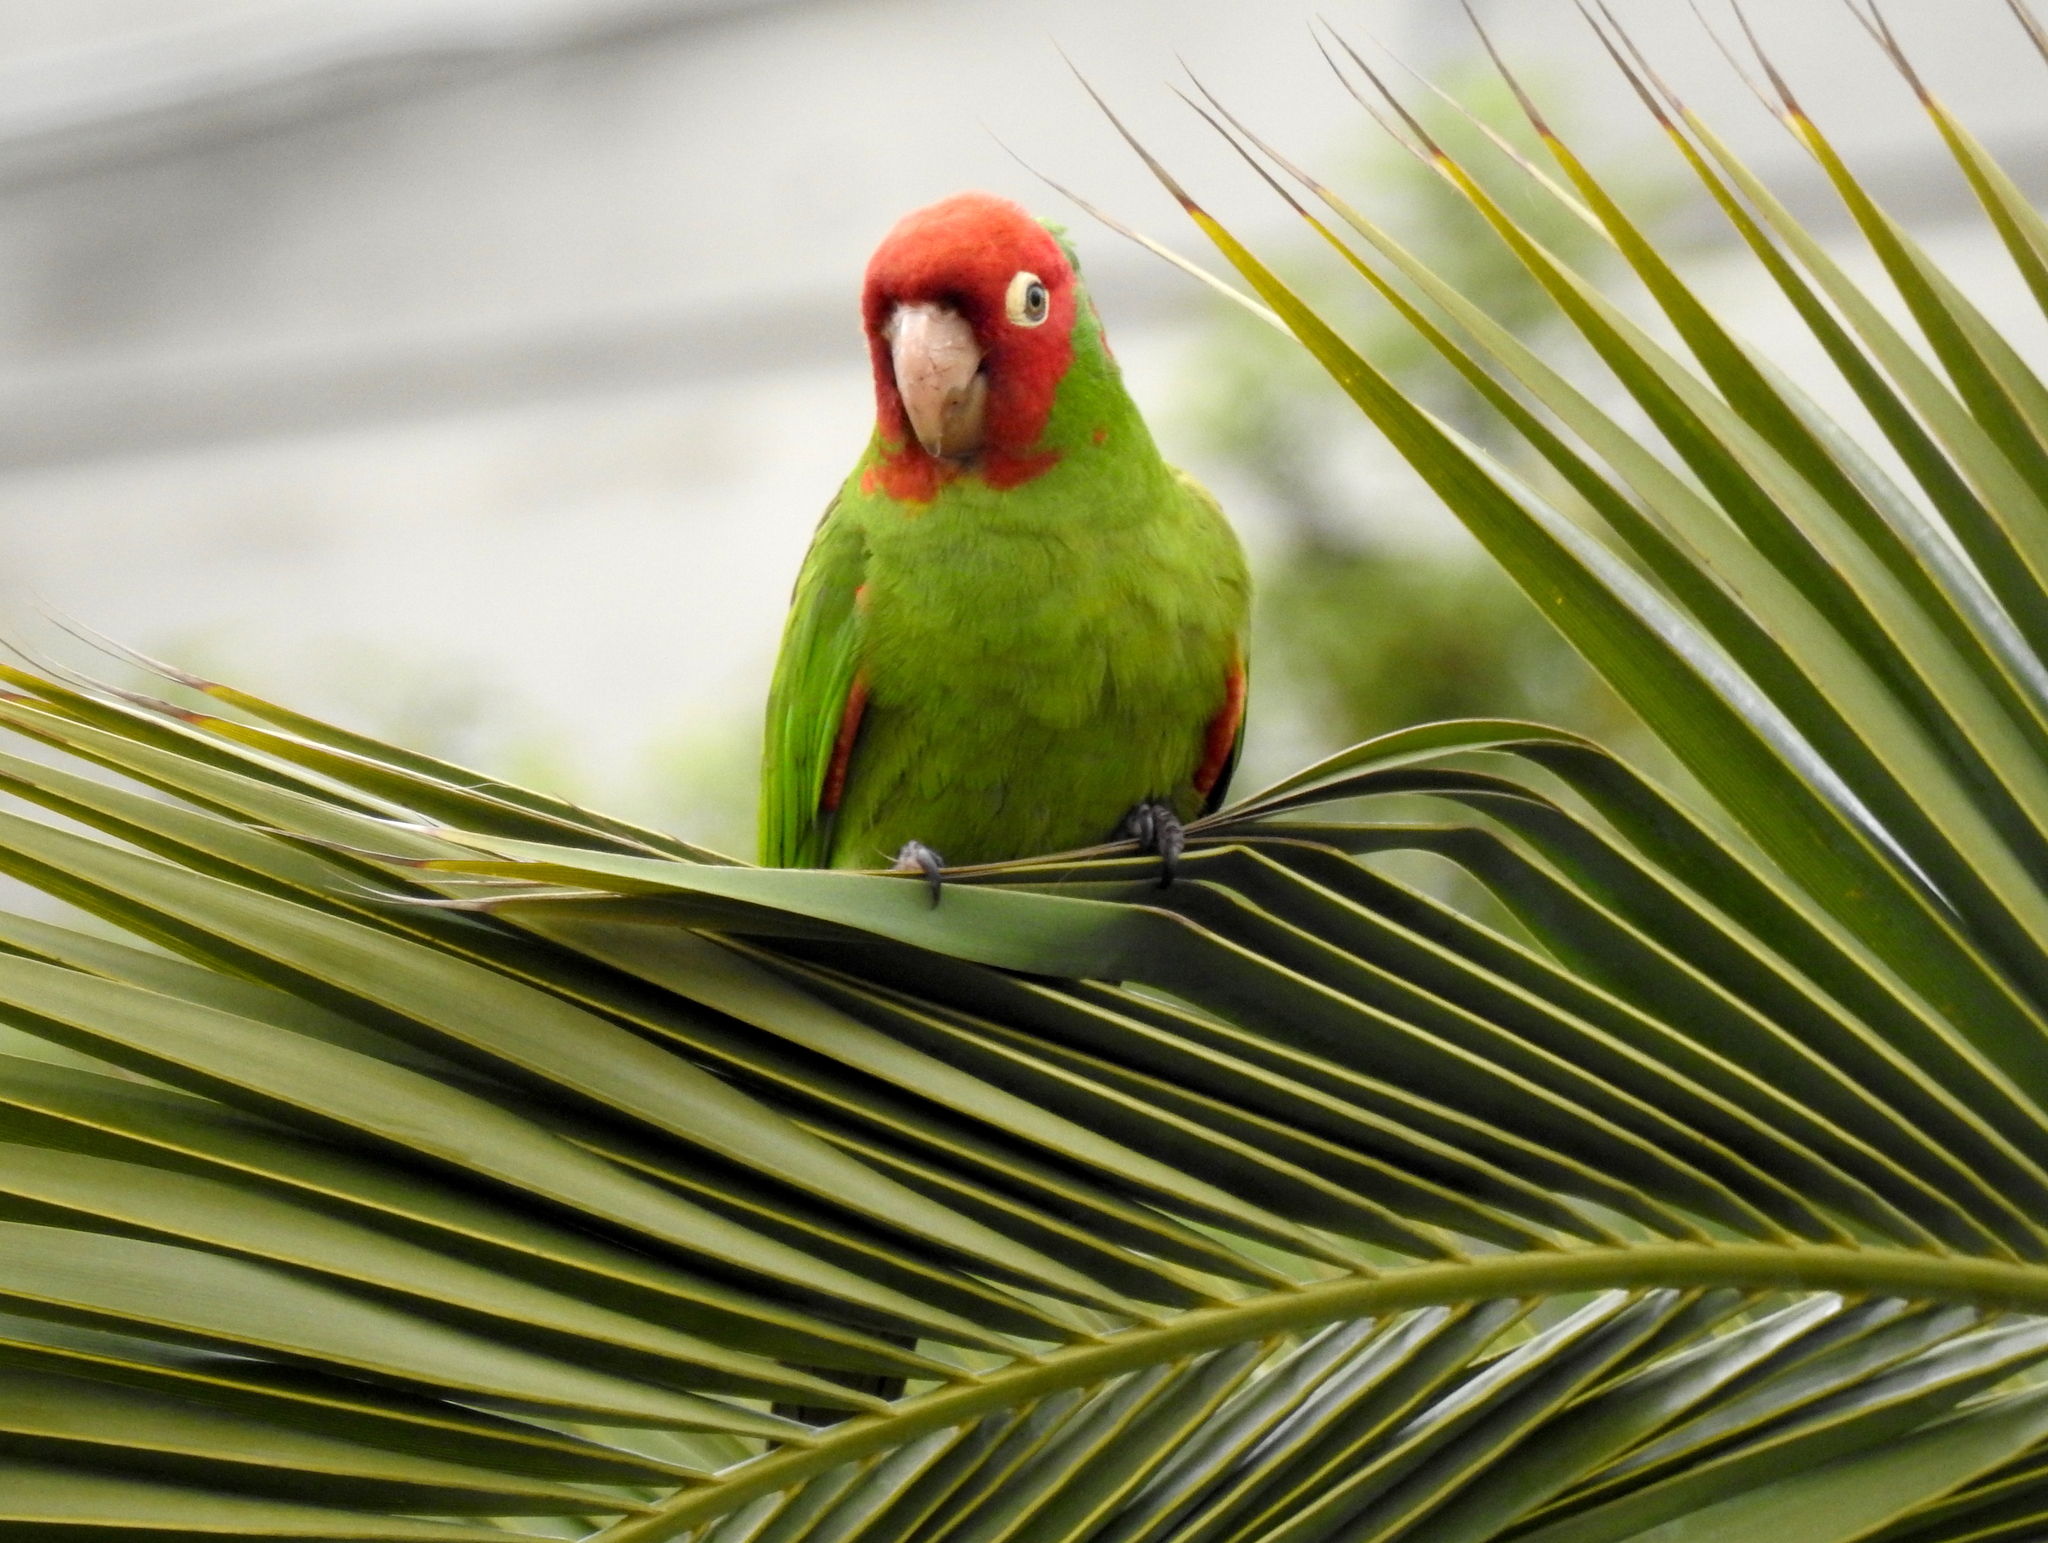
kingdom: Animalia
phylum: Chordata
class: Aves
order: Psittaciformes
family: Psittacidae
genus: Aratinga
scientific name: Aratinga erythrogenys
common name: Red-masked parakeet
